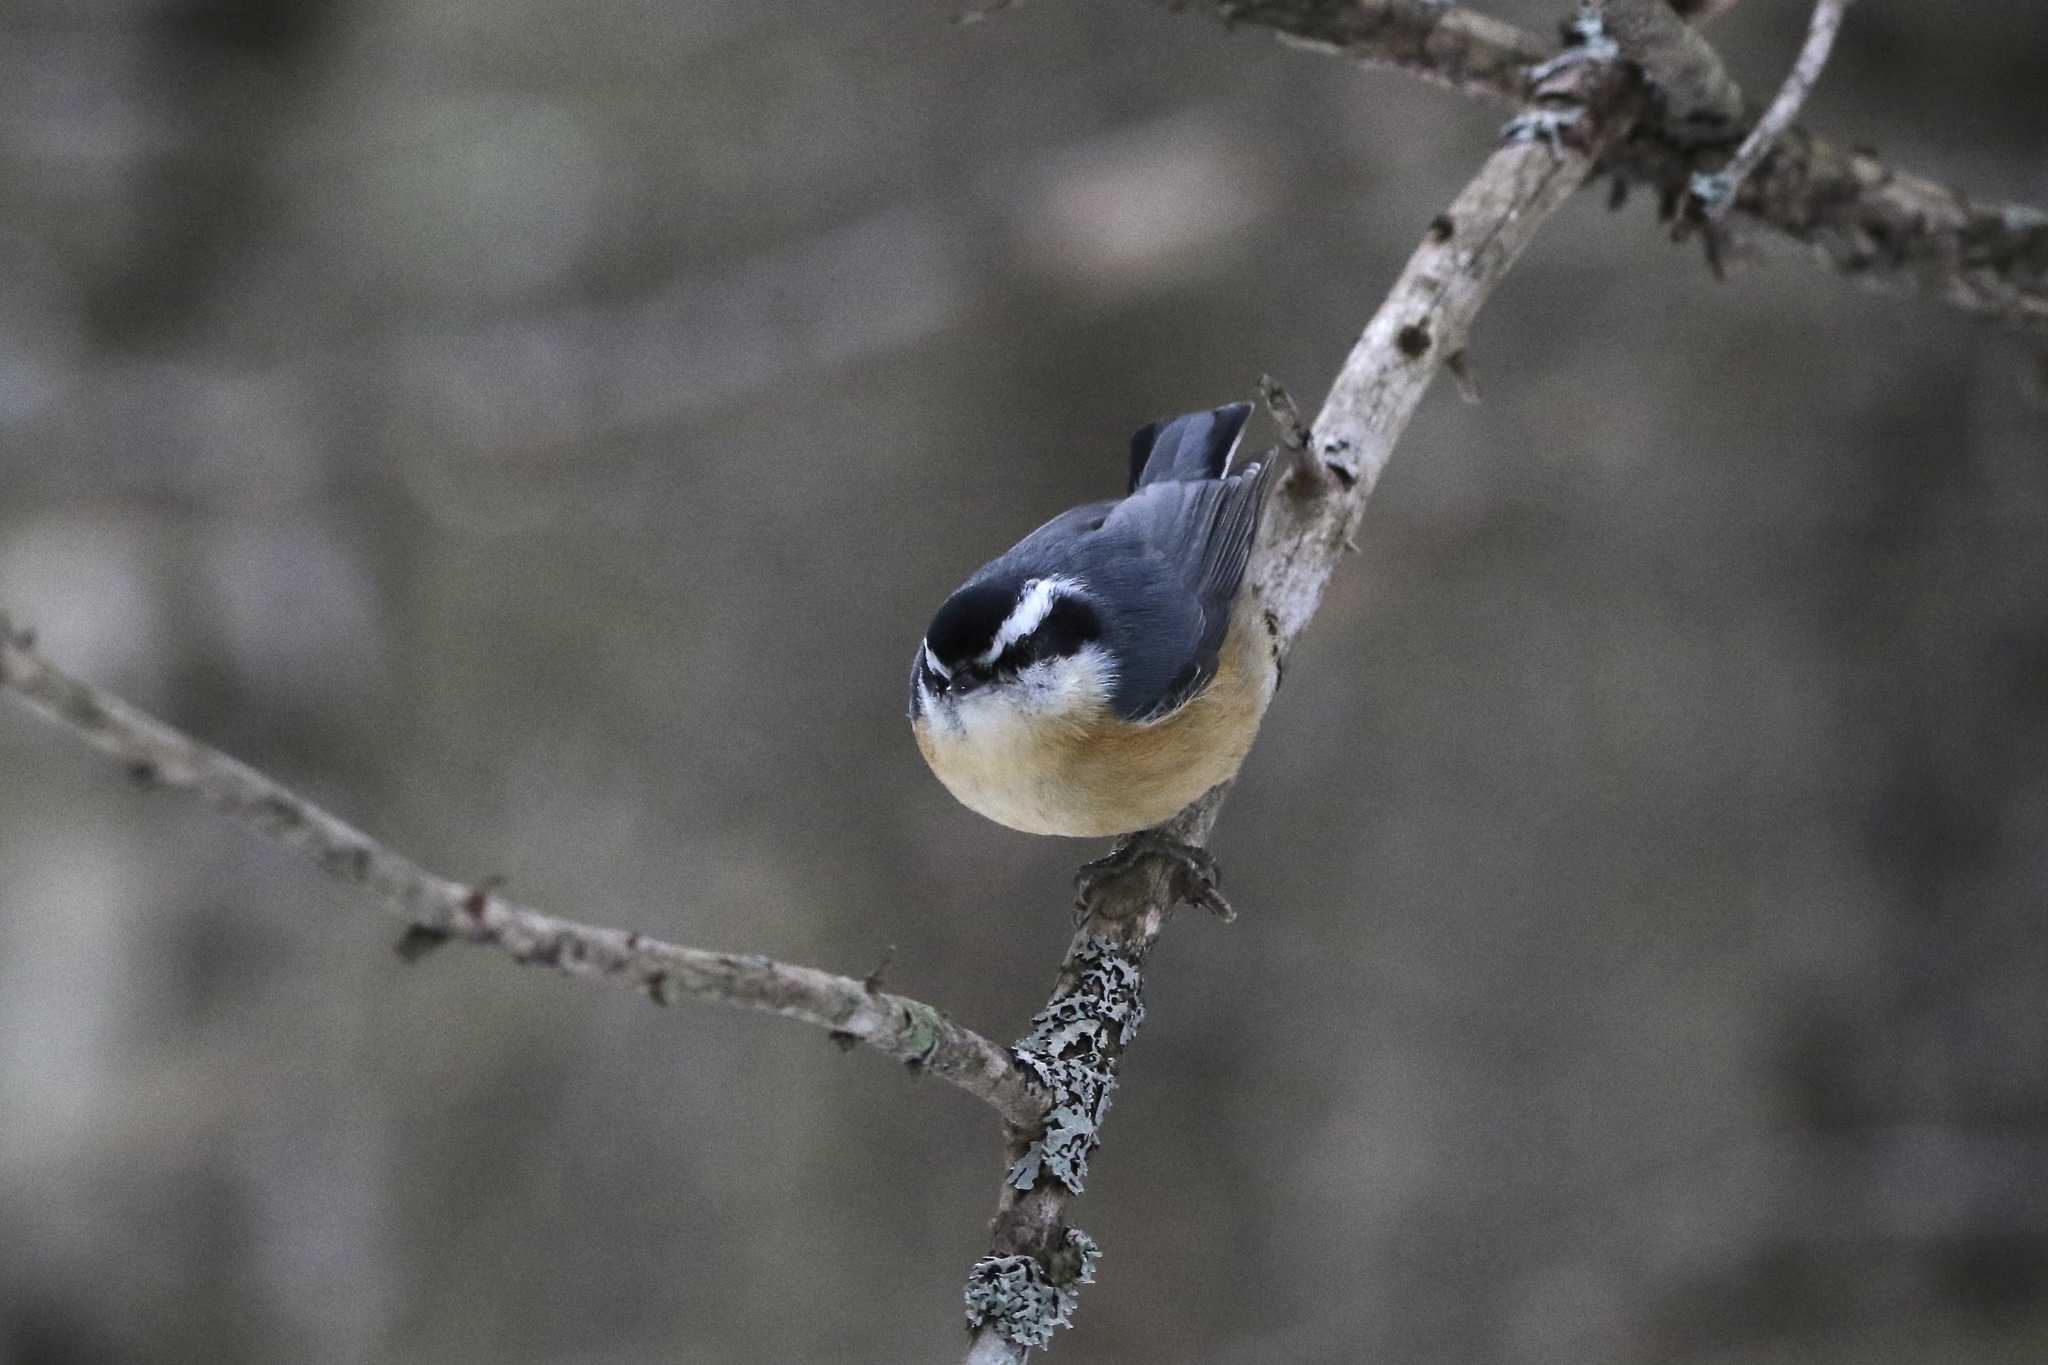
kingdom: Animalia
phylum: Chordata
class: Aves
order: Passeriformes
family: Sittidae
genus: Sitta
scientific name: Sitta canadensis
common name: Red-breasted nuthatch
